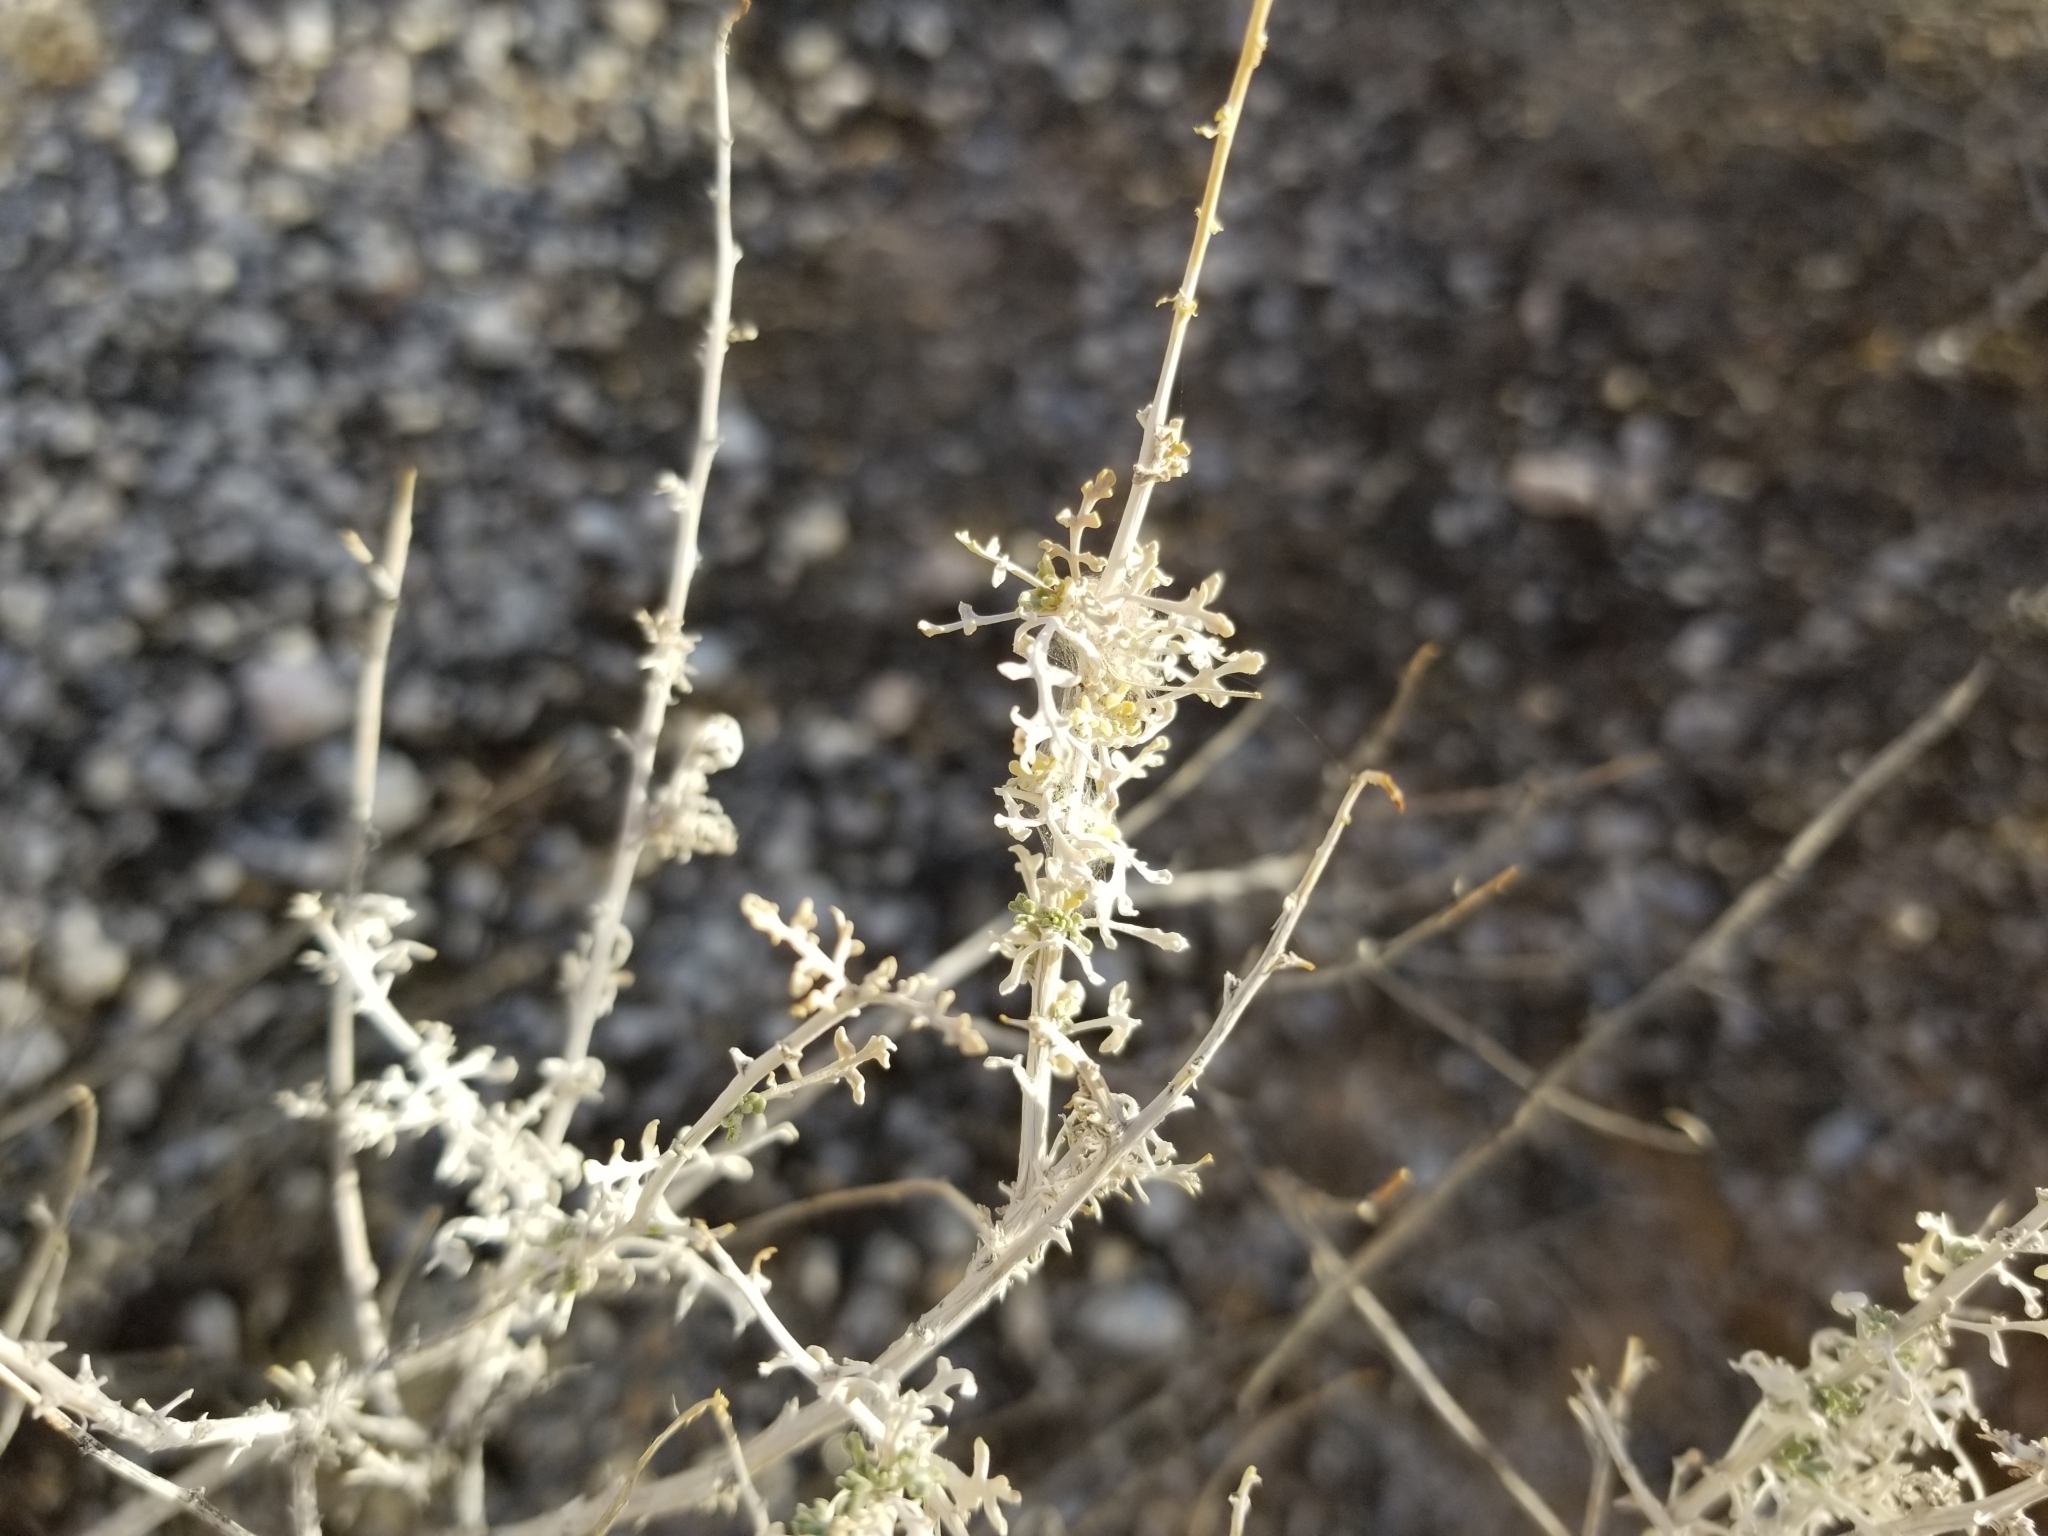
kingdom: Plantae
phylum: Tracheophyta
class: Magnoliopsida
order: Asterales
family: Asteraceae
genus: Ambrosia
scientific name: Ambrosia dumosa
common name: Bur-sage
